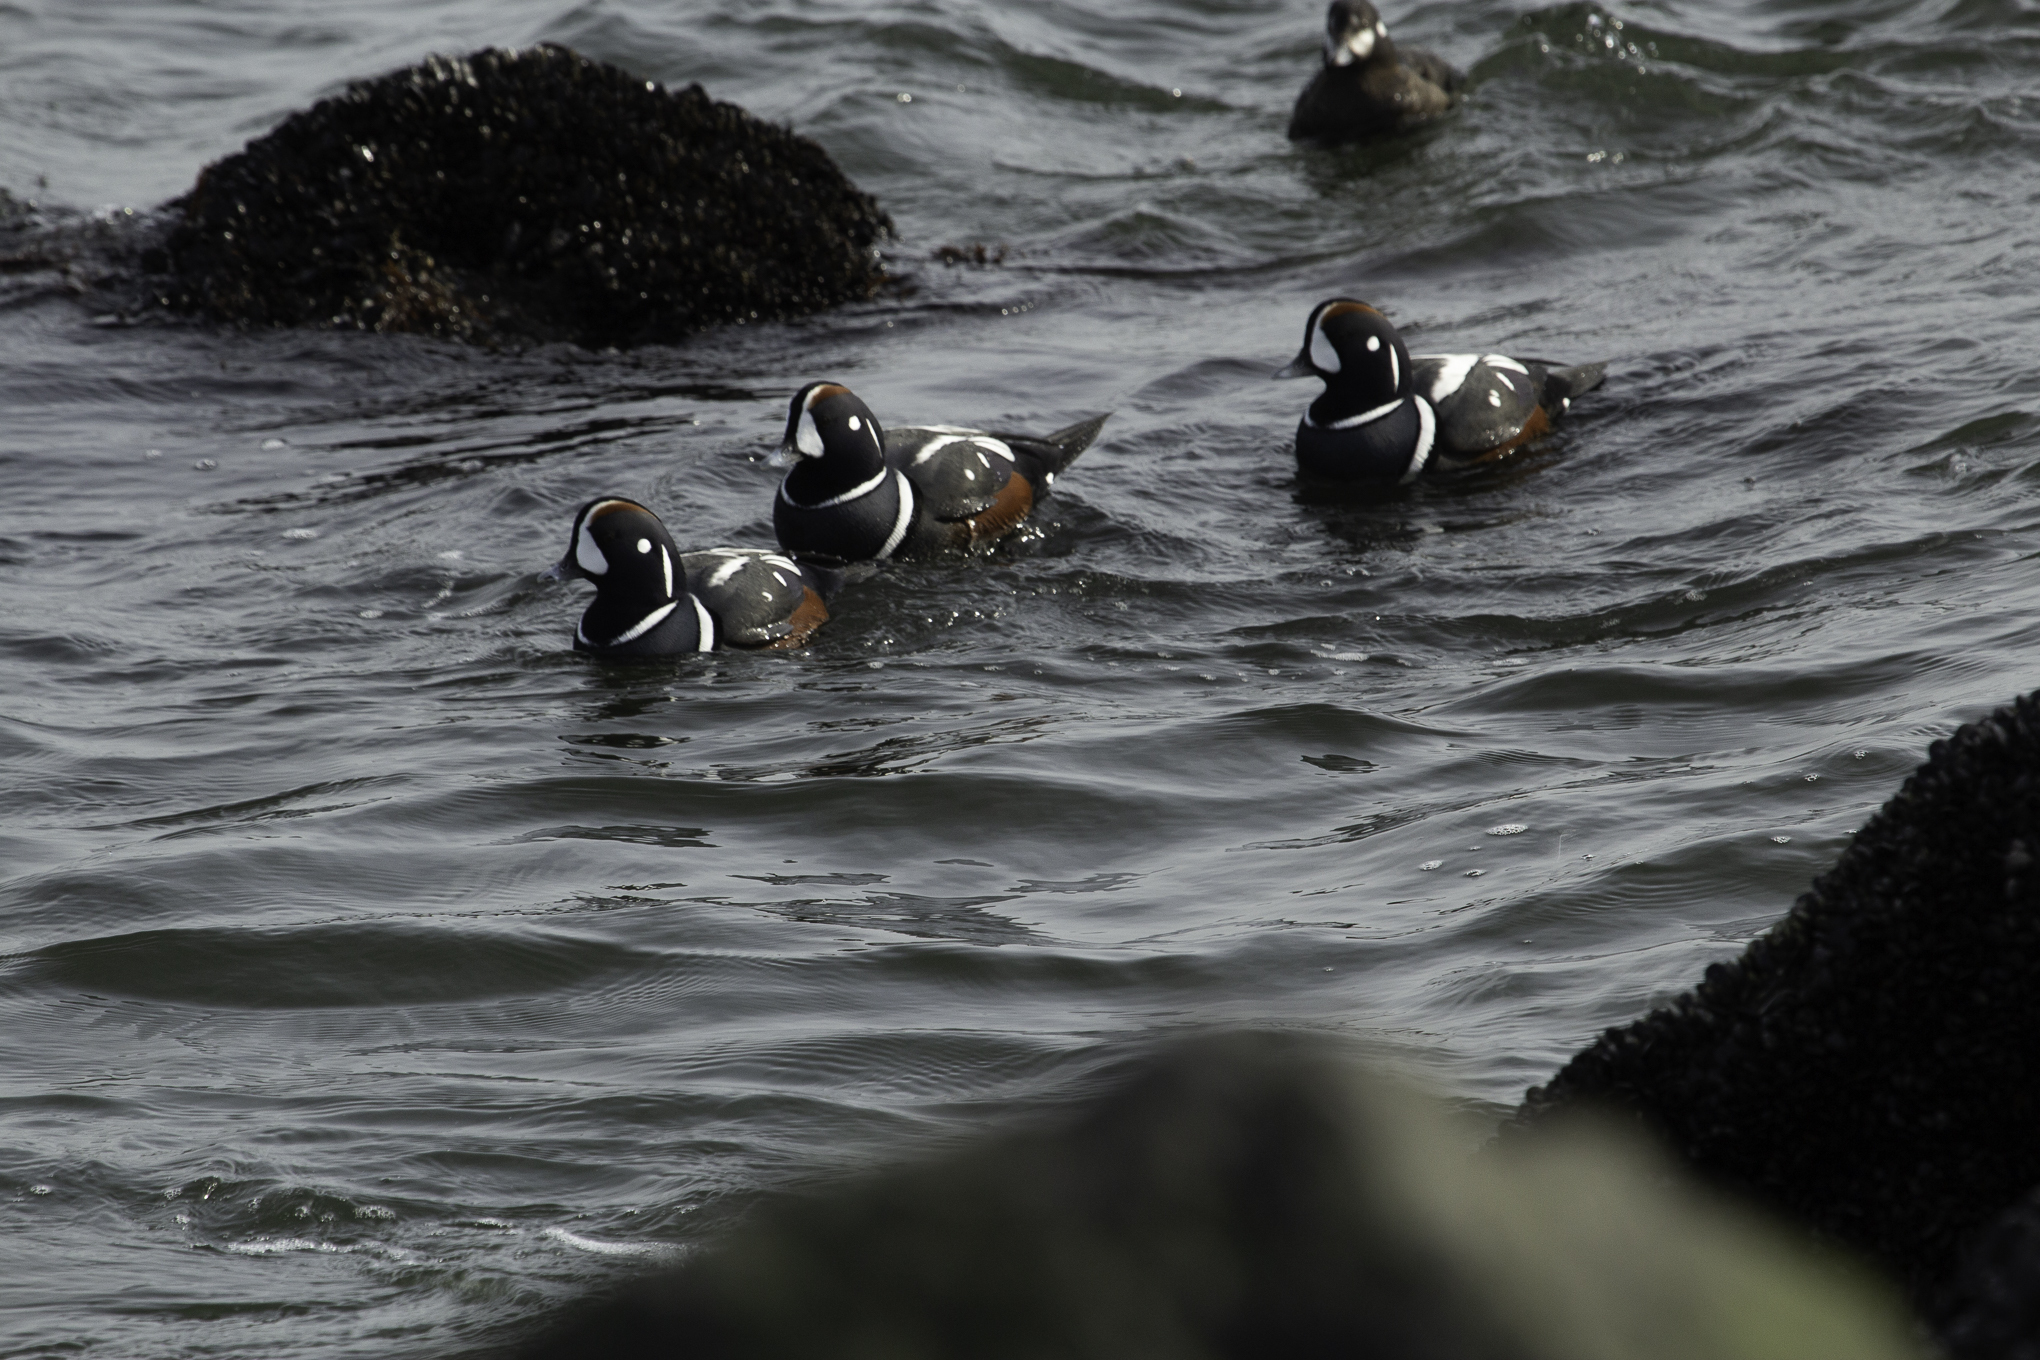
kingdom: Animalia
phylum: Chordata
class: Aves
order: Anseriformes
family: Anatidae
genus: Histrionicus
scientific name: Histrionicus histrionicus
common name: Harlequin duck
